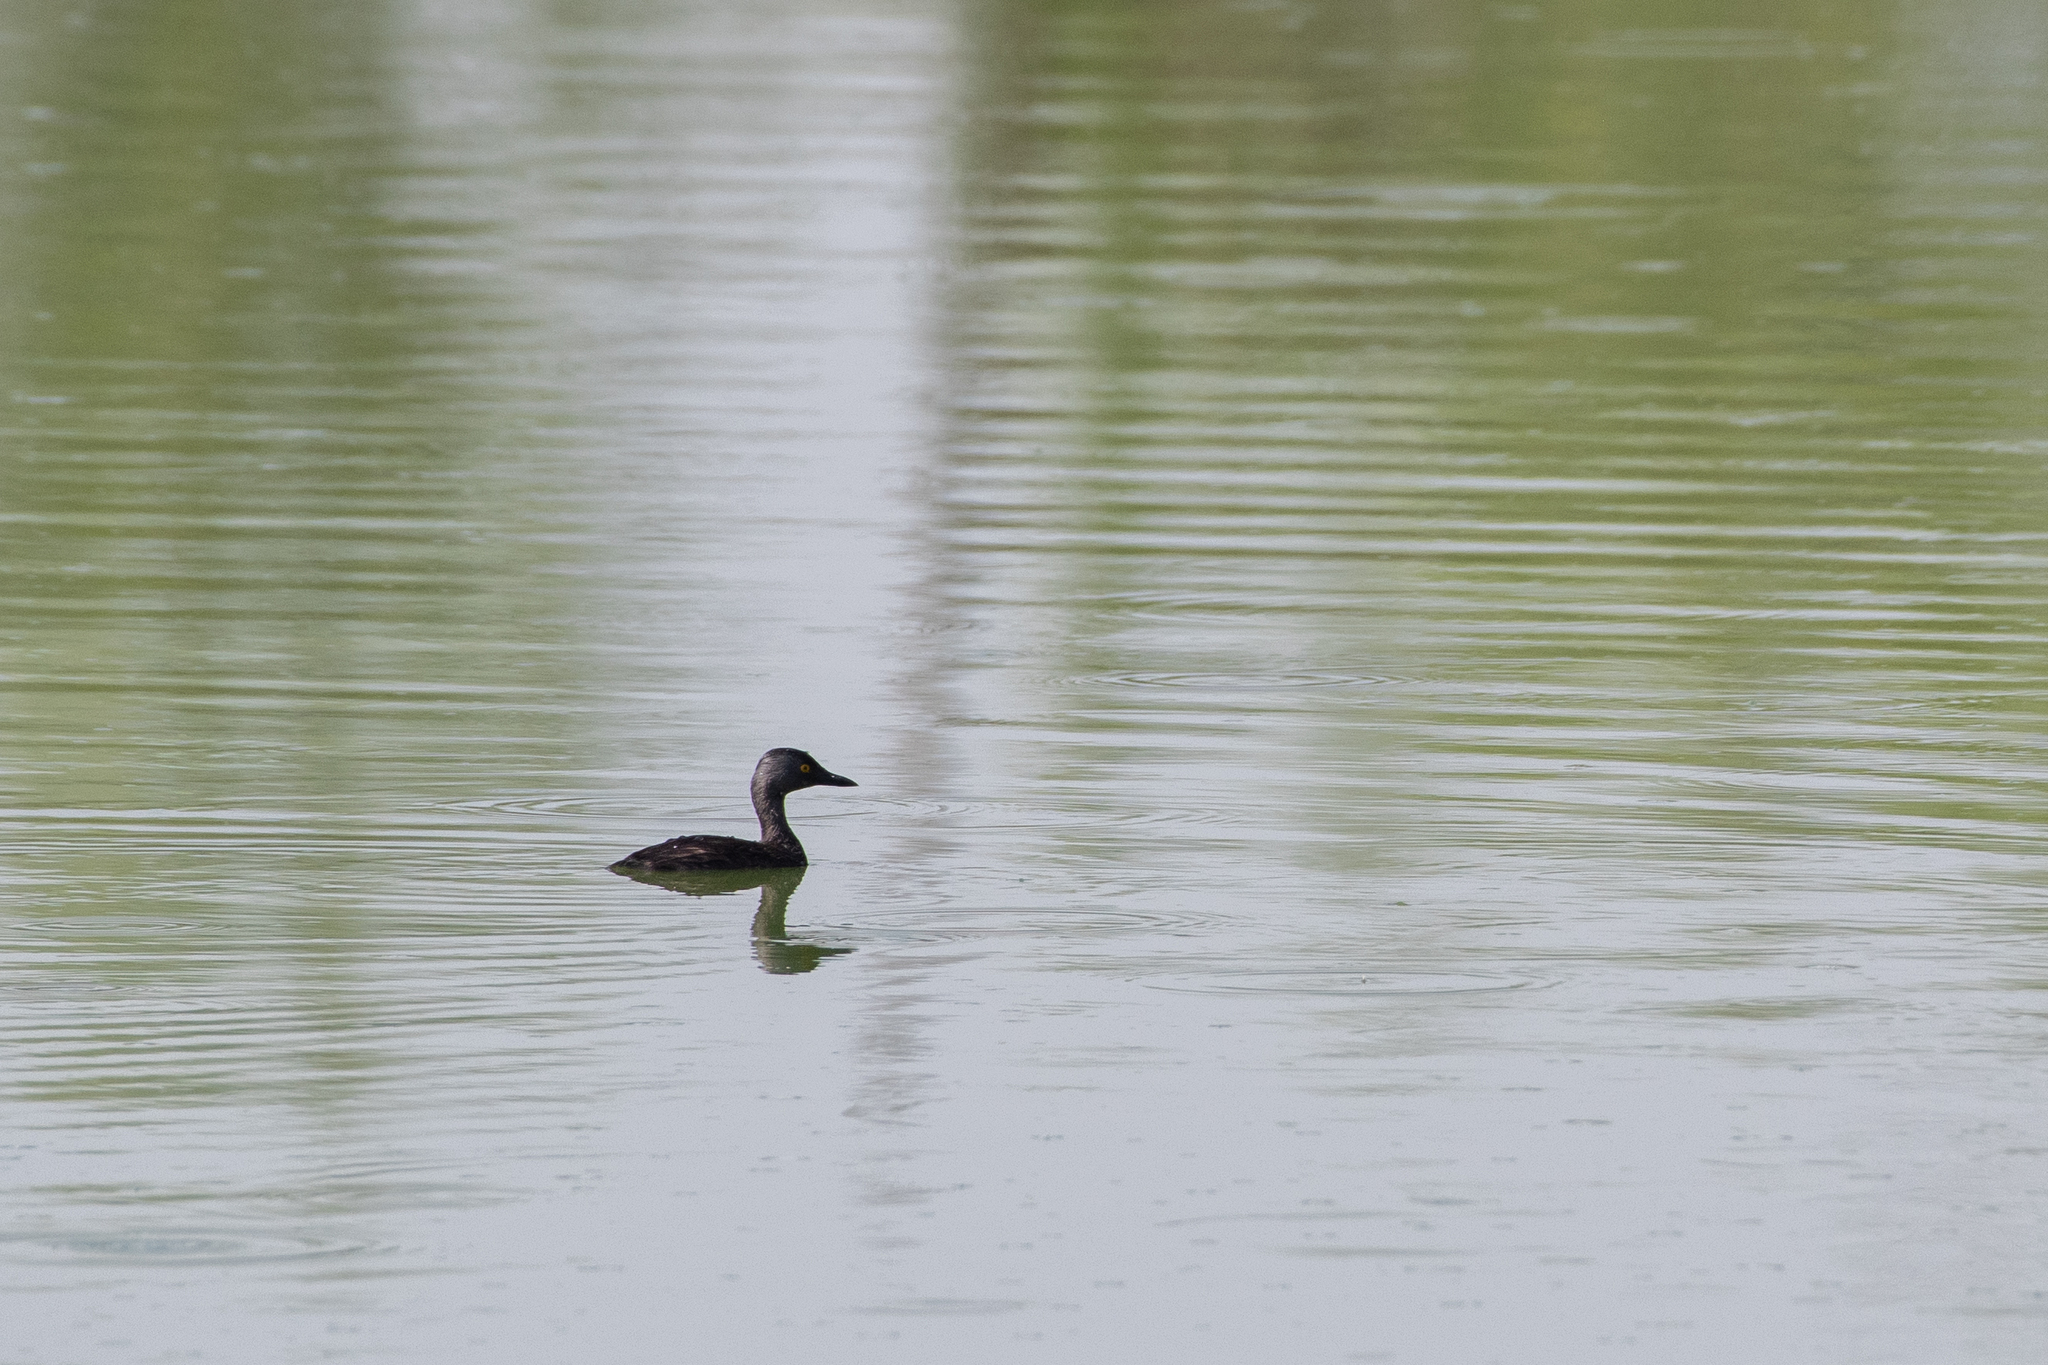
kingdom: Animalia
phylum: Chordata
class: Aves
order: Podicipediformes
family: Podicipedidae
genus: Tachybaptus
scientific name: Tachybaptus dominicus
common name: Least grebe
